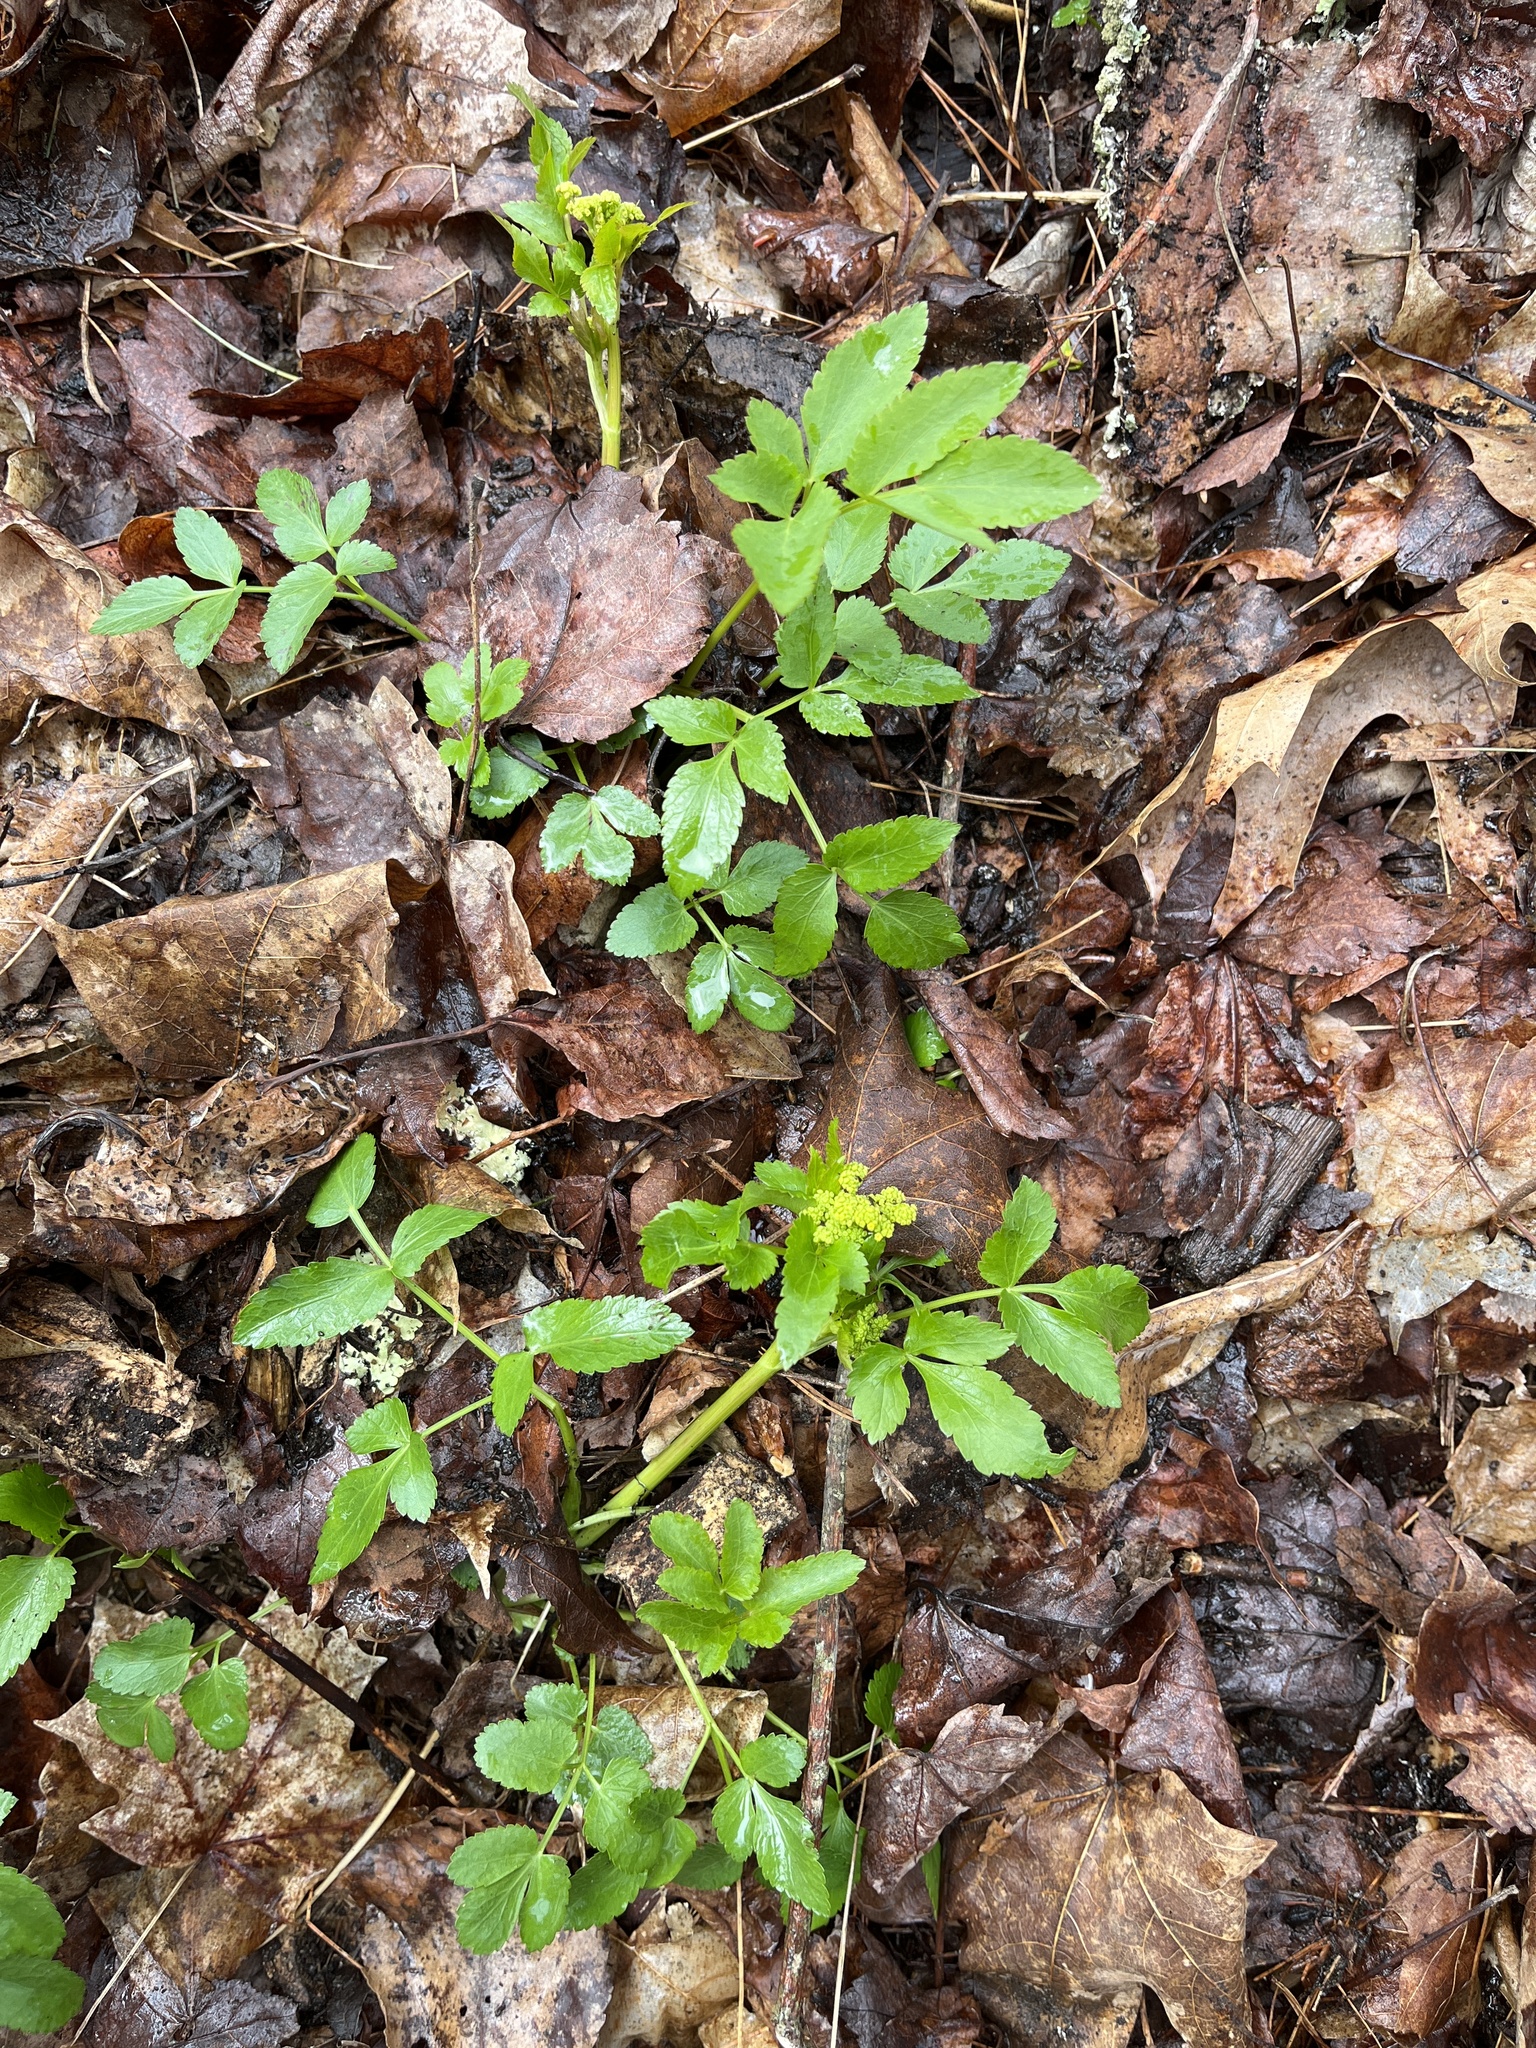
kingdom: Plantae
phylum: Tracheophyta
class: Magnoliopsida
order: Apiales
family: Apiaceae
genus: Zizia
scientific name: Zizia aurea
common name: Golden alexanders
